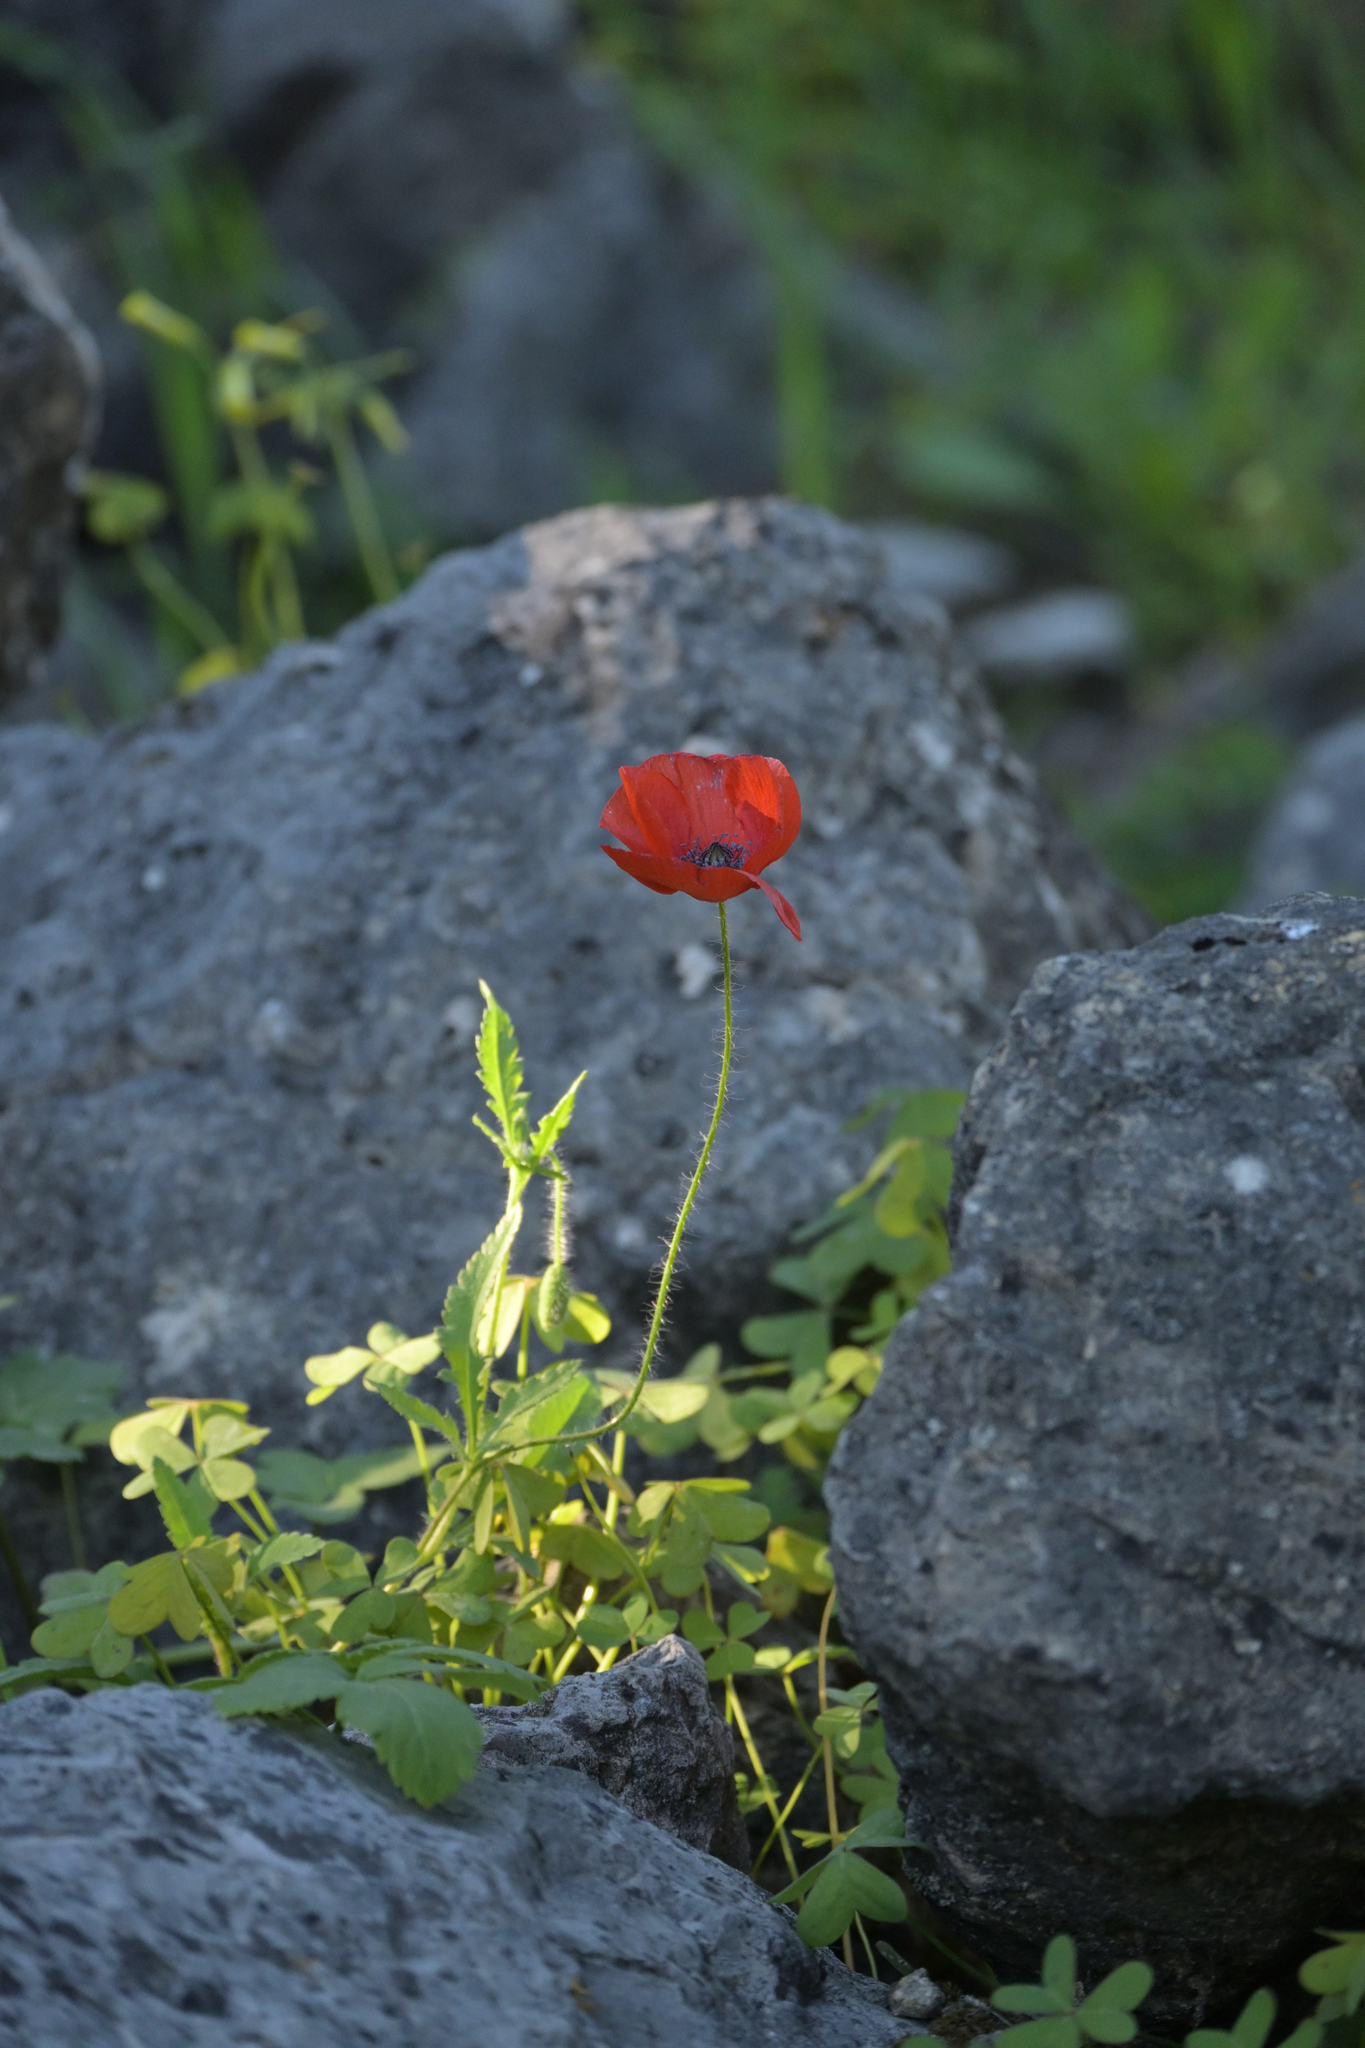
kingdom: Plantae
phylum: Tracheophyta
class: Magnoliopsida
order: Ranunculales
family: Papaveraceae
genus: Papaver
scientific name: Papaver rhoeas
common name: Corn poppy
